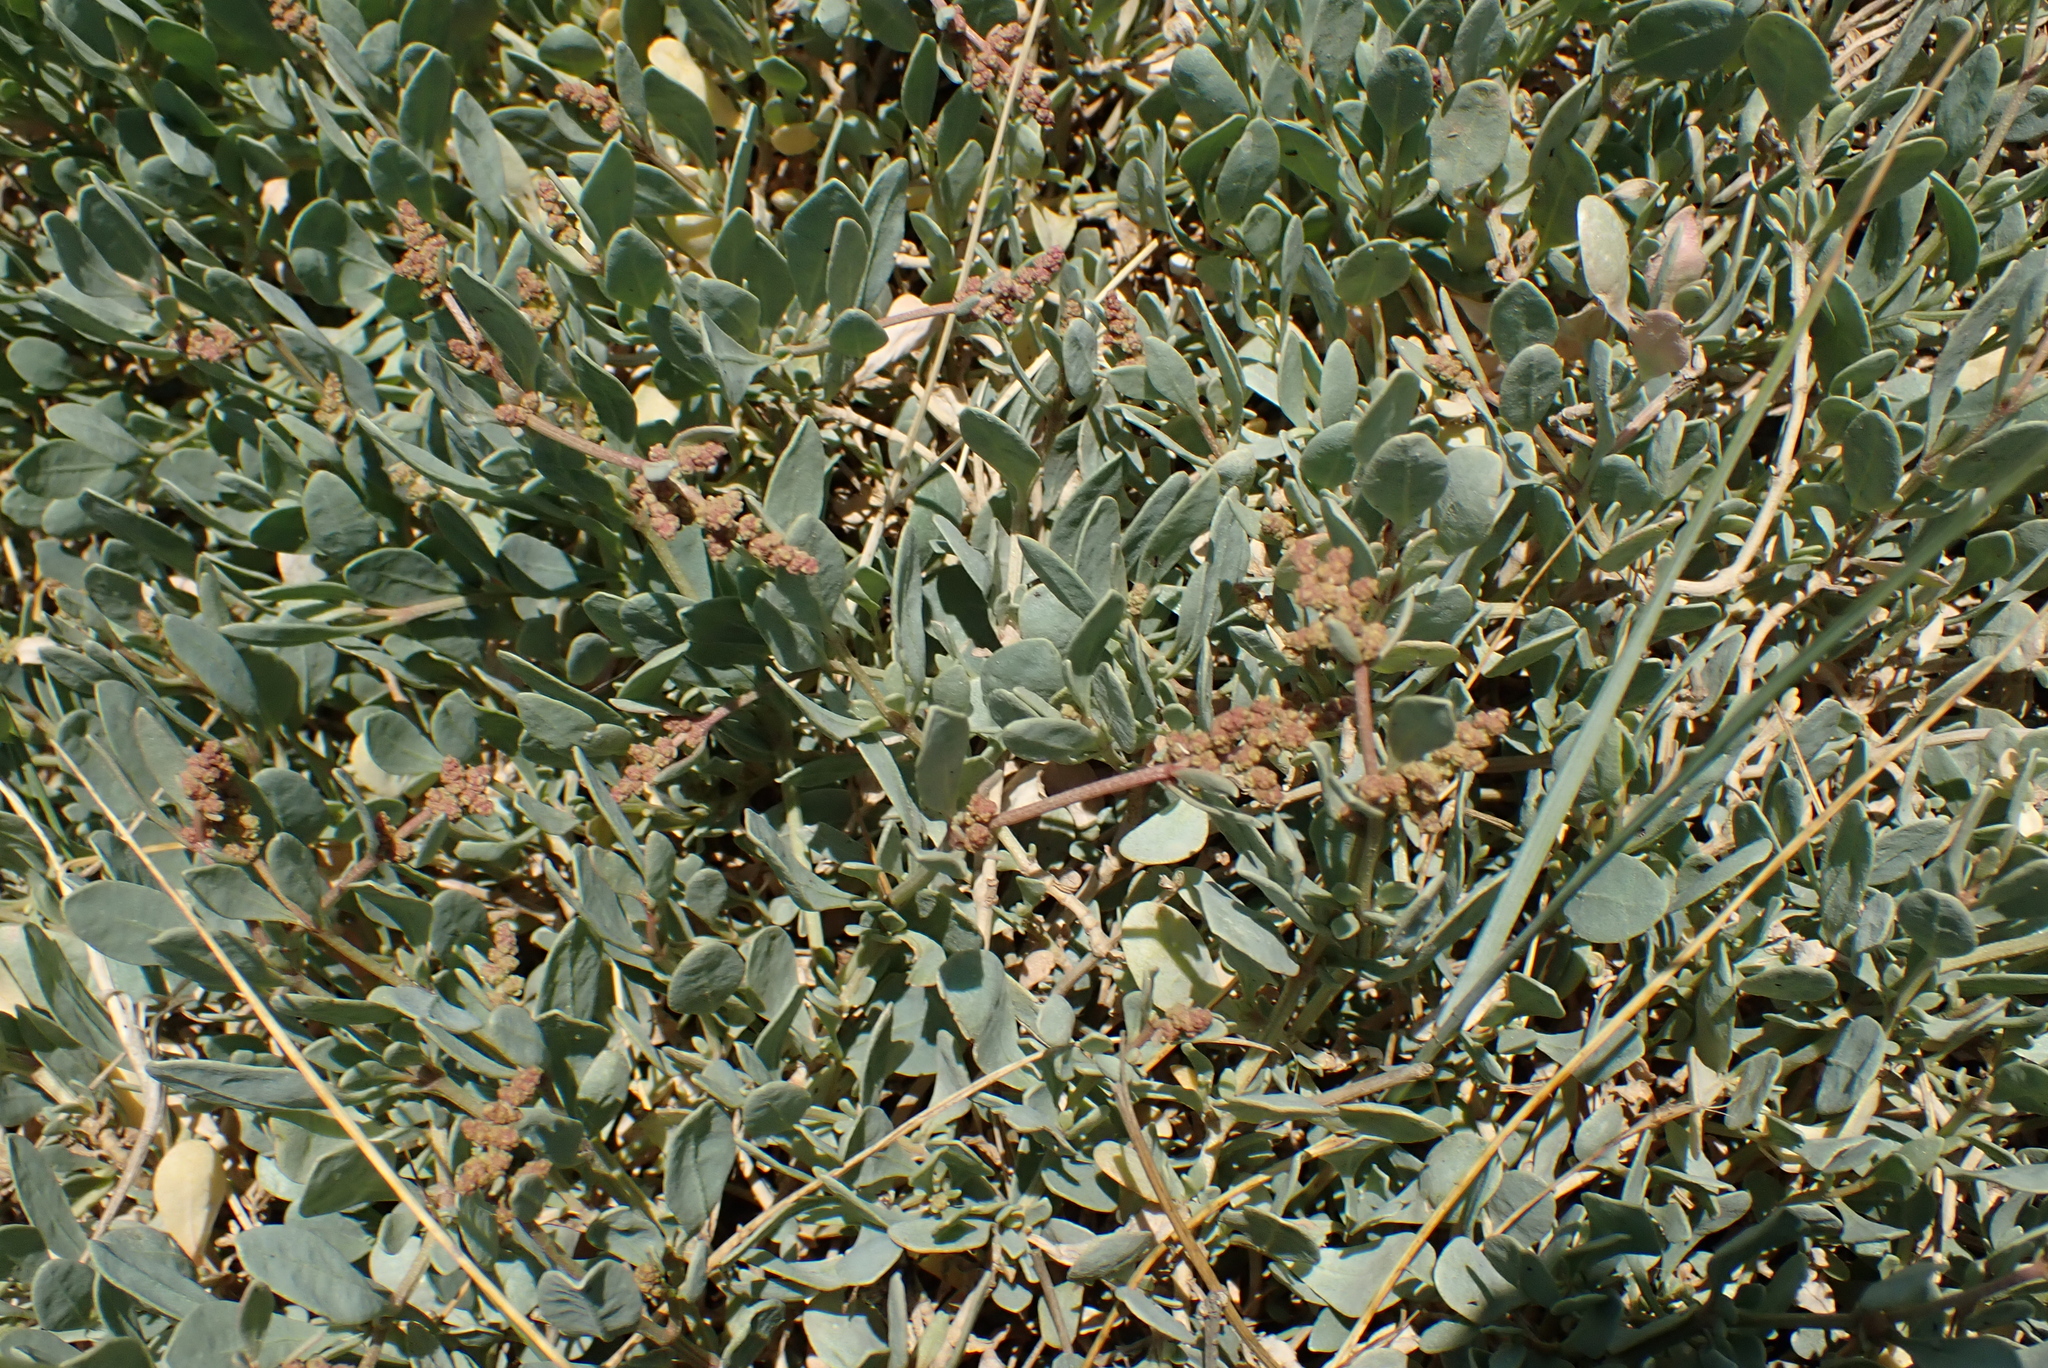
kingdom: Plantae
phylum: Tracheophyta
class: Magnoliopsida
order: Caryophyllales
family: Amaranthaceae
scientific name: Amaranthaceae
